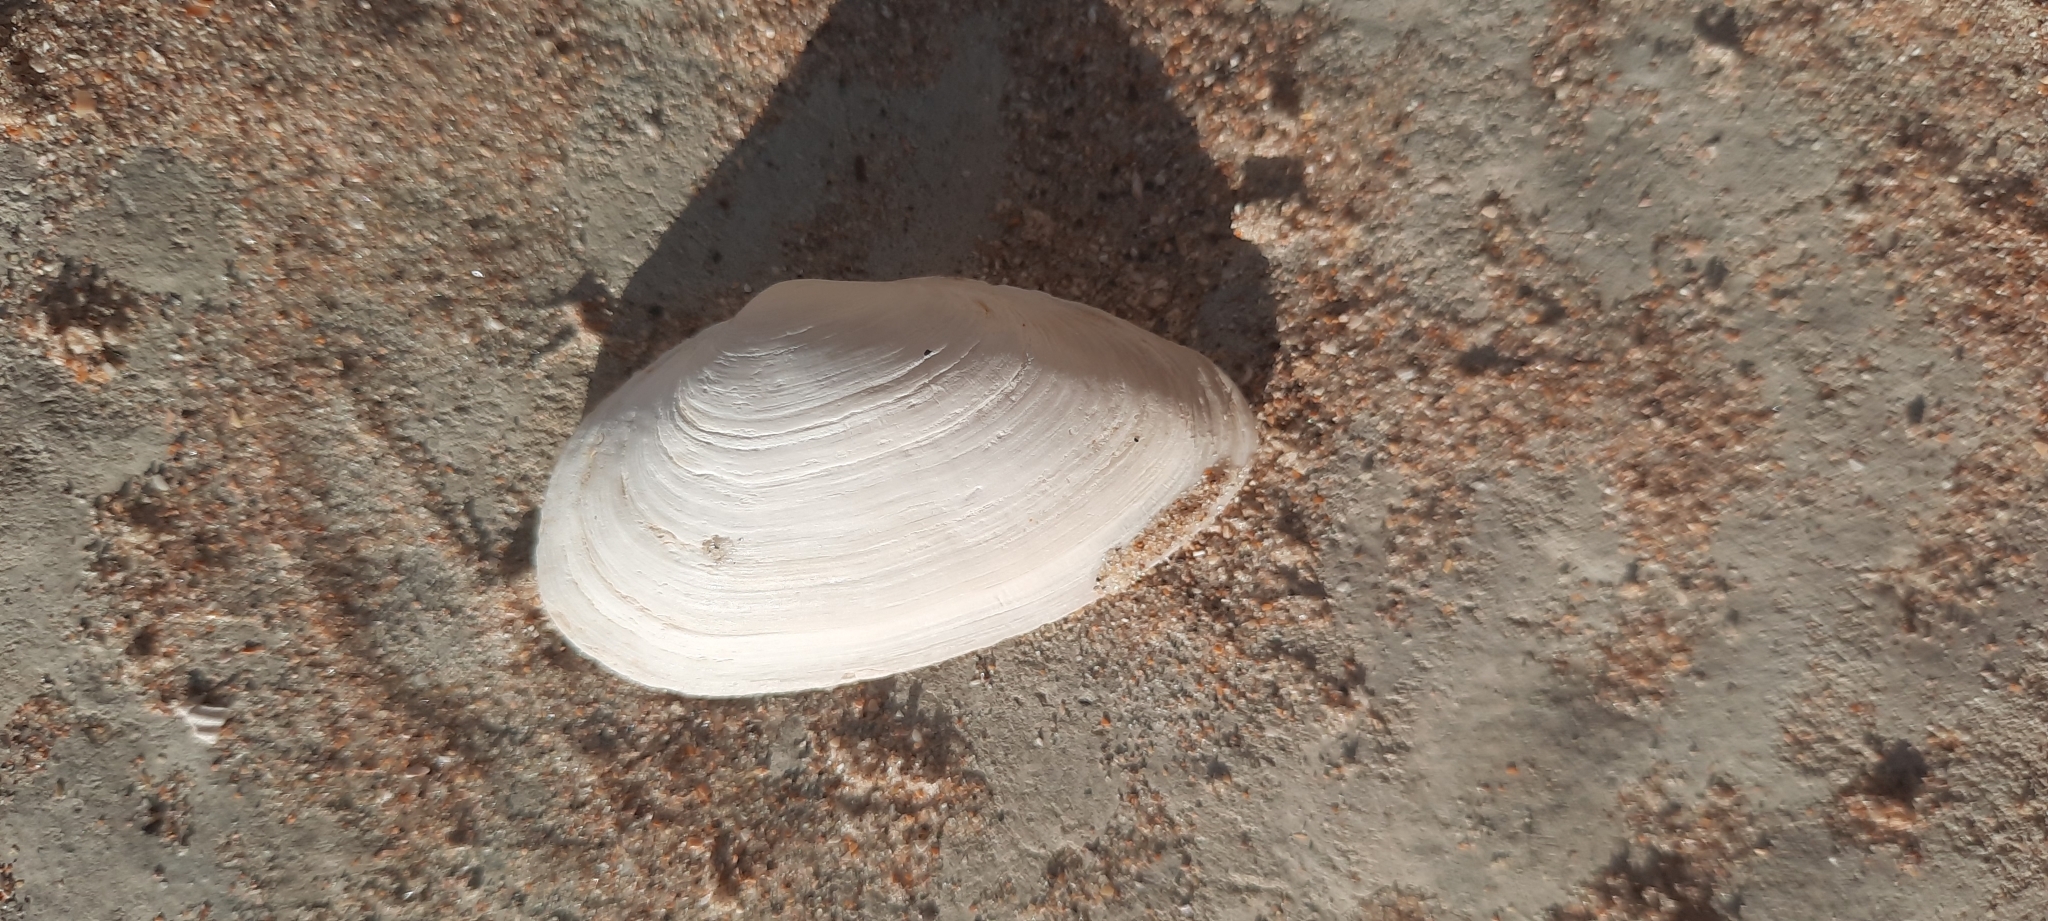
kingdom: Animalia
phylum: Mollusca
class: Bivalvia
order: Myida
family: Myidae
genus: Mya
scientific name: Mya arenaria
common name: Soft-shelled clam
